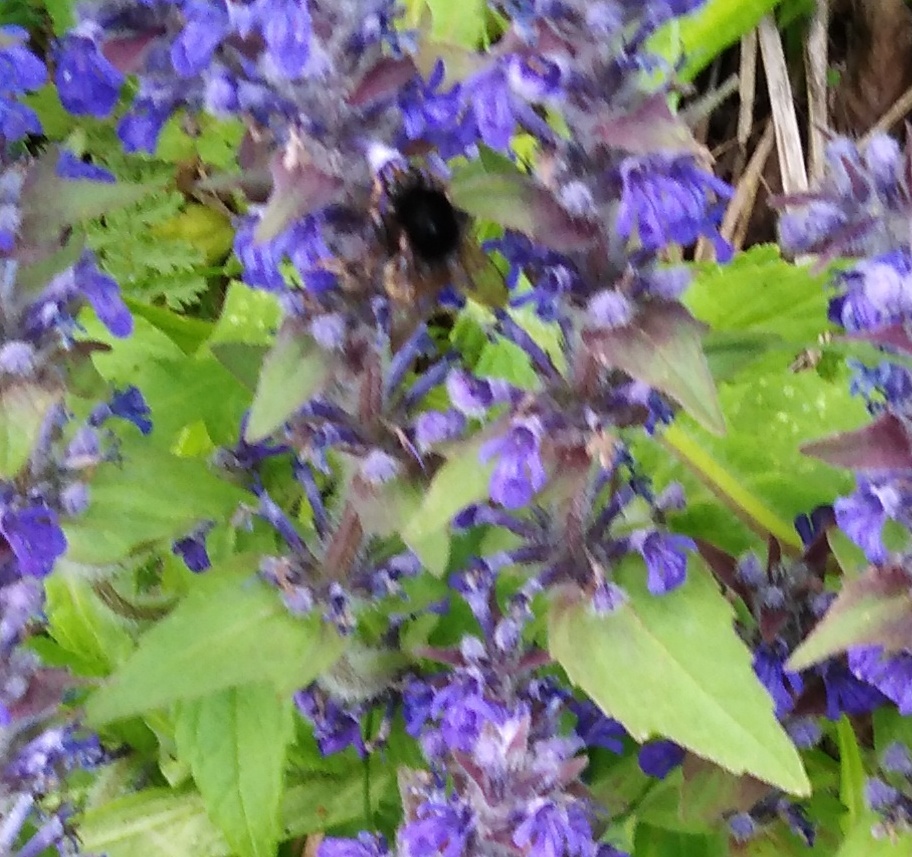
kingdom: Animalia
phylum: Arthropoda
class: Insecta
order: Hymenoptera
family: Apidae
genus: Bombus
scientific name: Bombus pomorum
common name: Apple humble-bee
